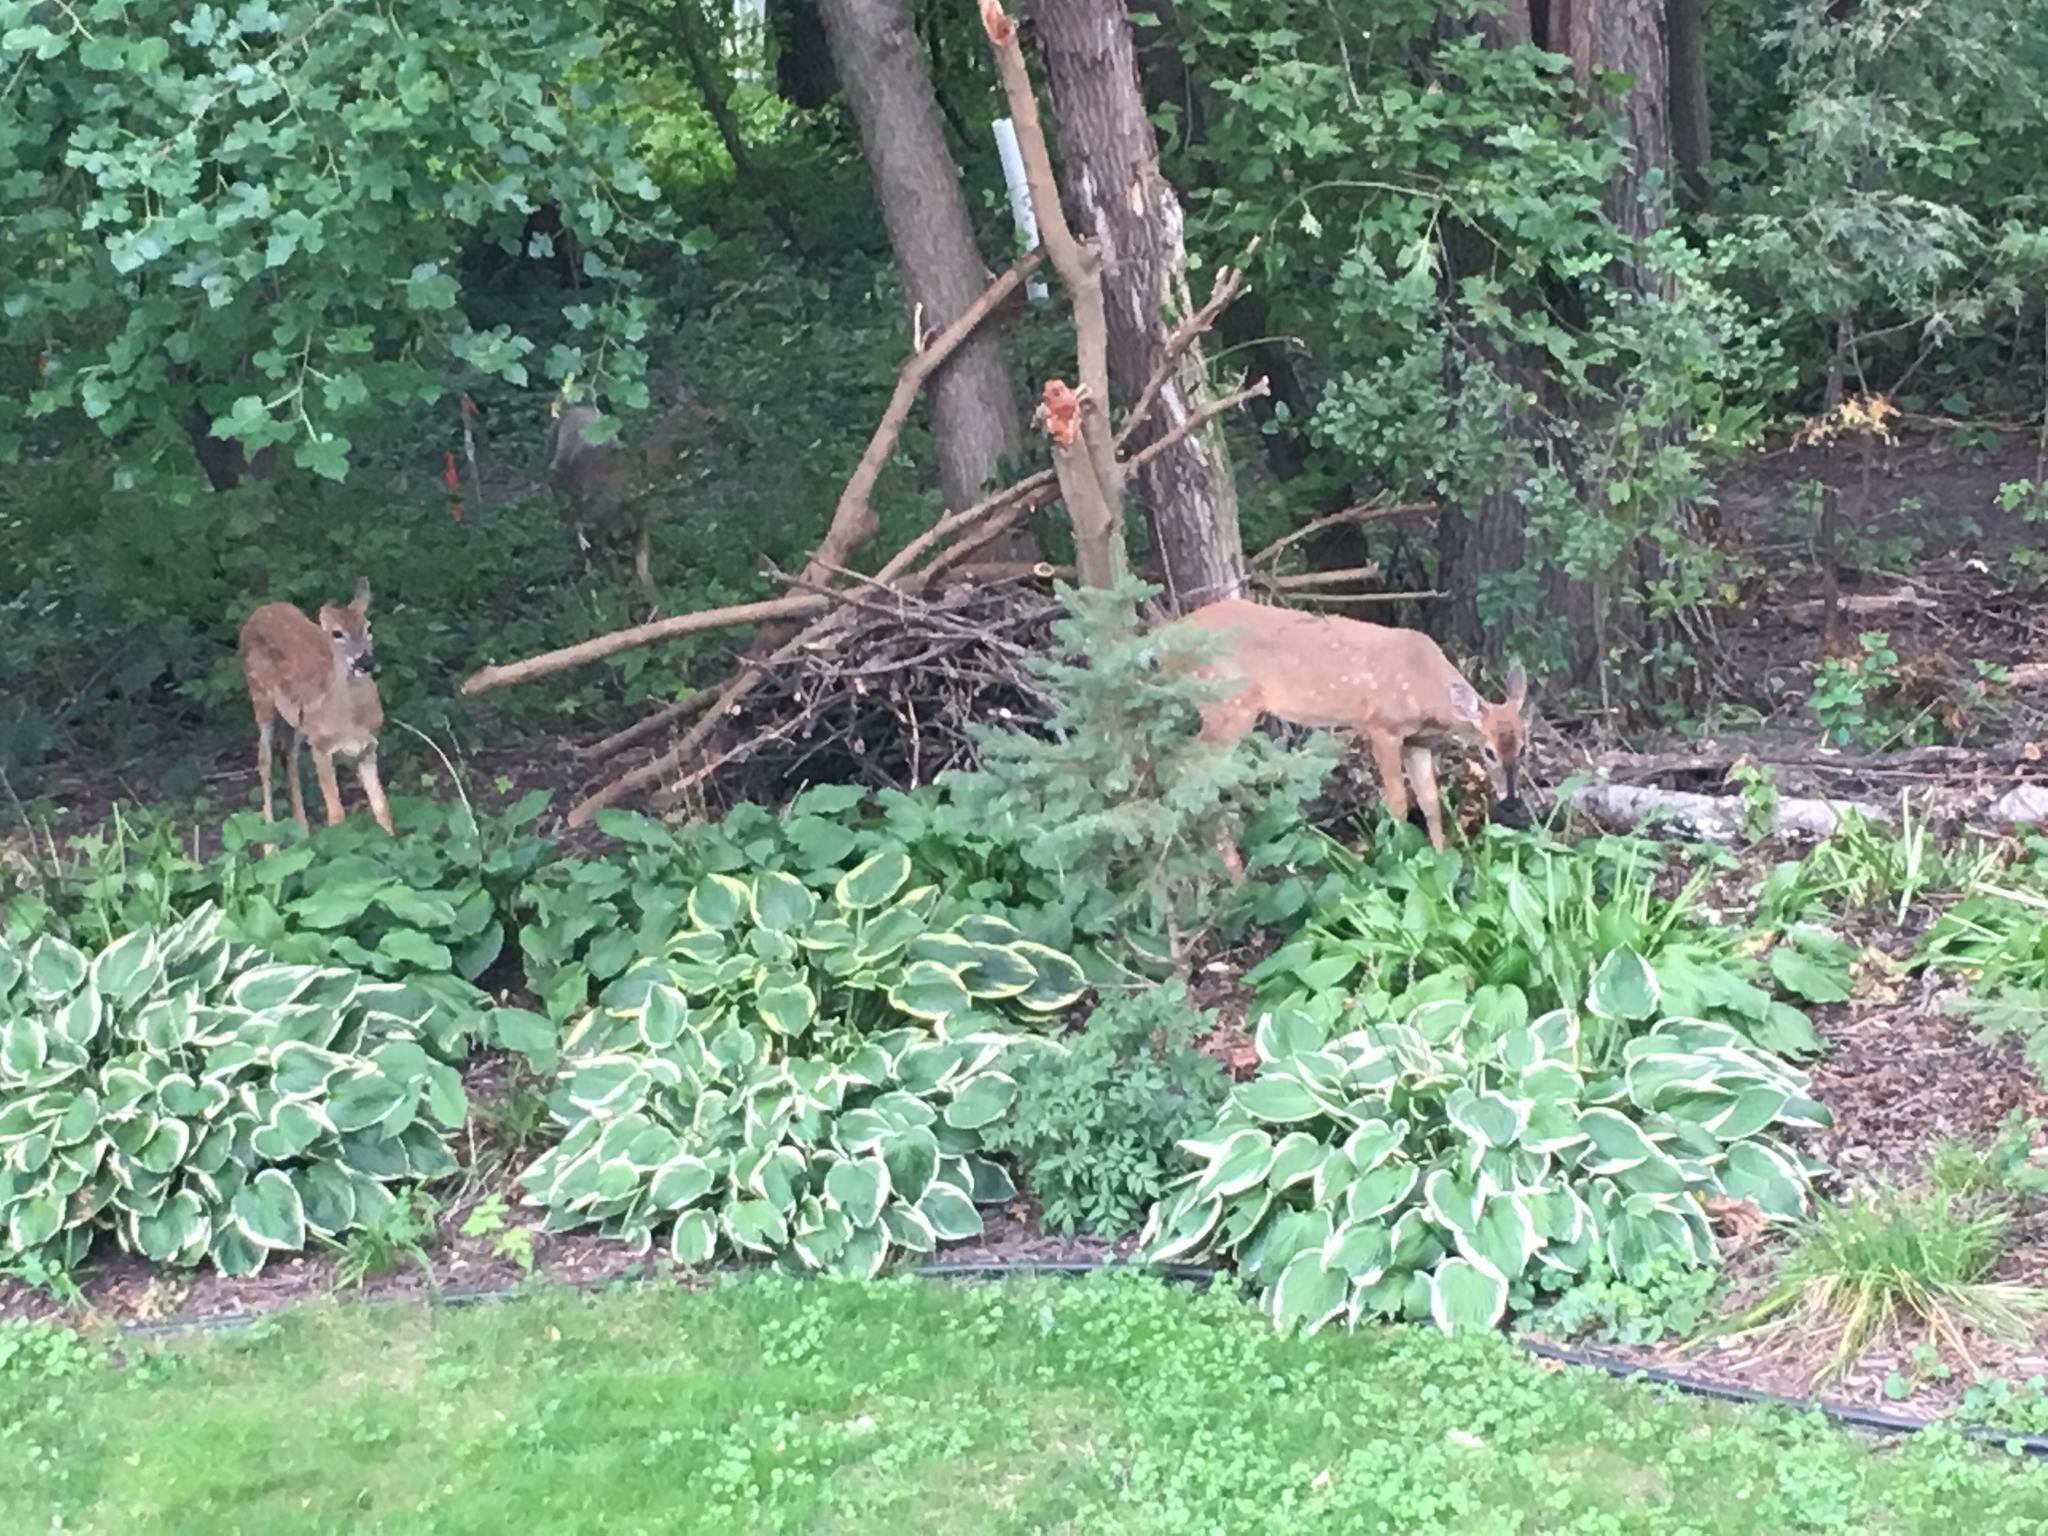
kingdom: Animalia
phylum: Chordata
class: Mammalia
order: Artiodactyla
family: Cervidae
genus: Odocoileus
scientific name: Odocoileus virginianus
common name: White-tailed deer
